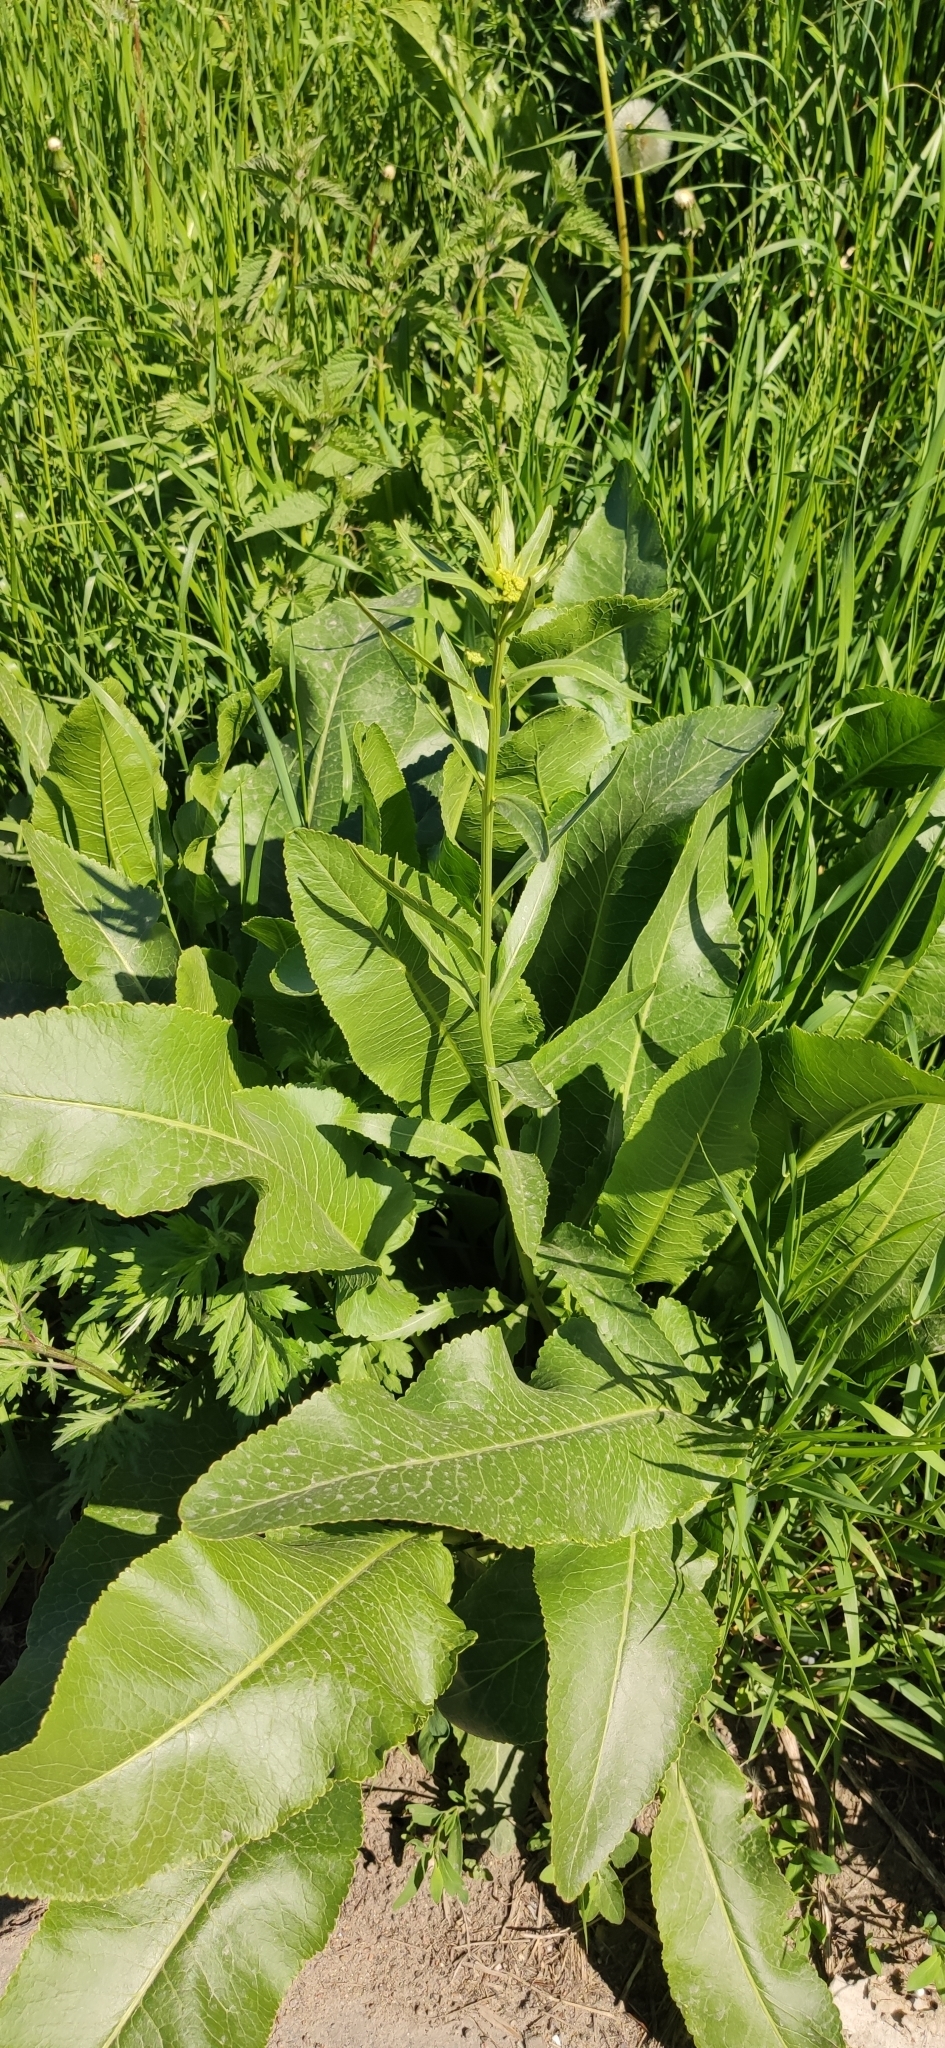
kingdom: Plantae
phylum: Tracheophyta
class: Magnoliopsida
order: Brassicales
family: Brassicaceae
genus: Armoracia
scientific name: Armoracia rusticana
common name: Horseradish
